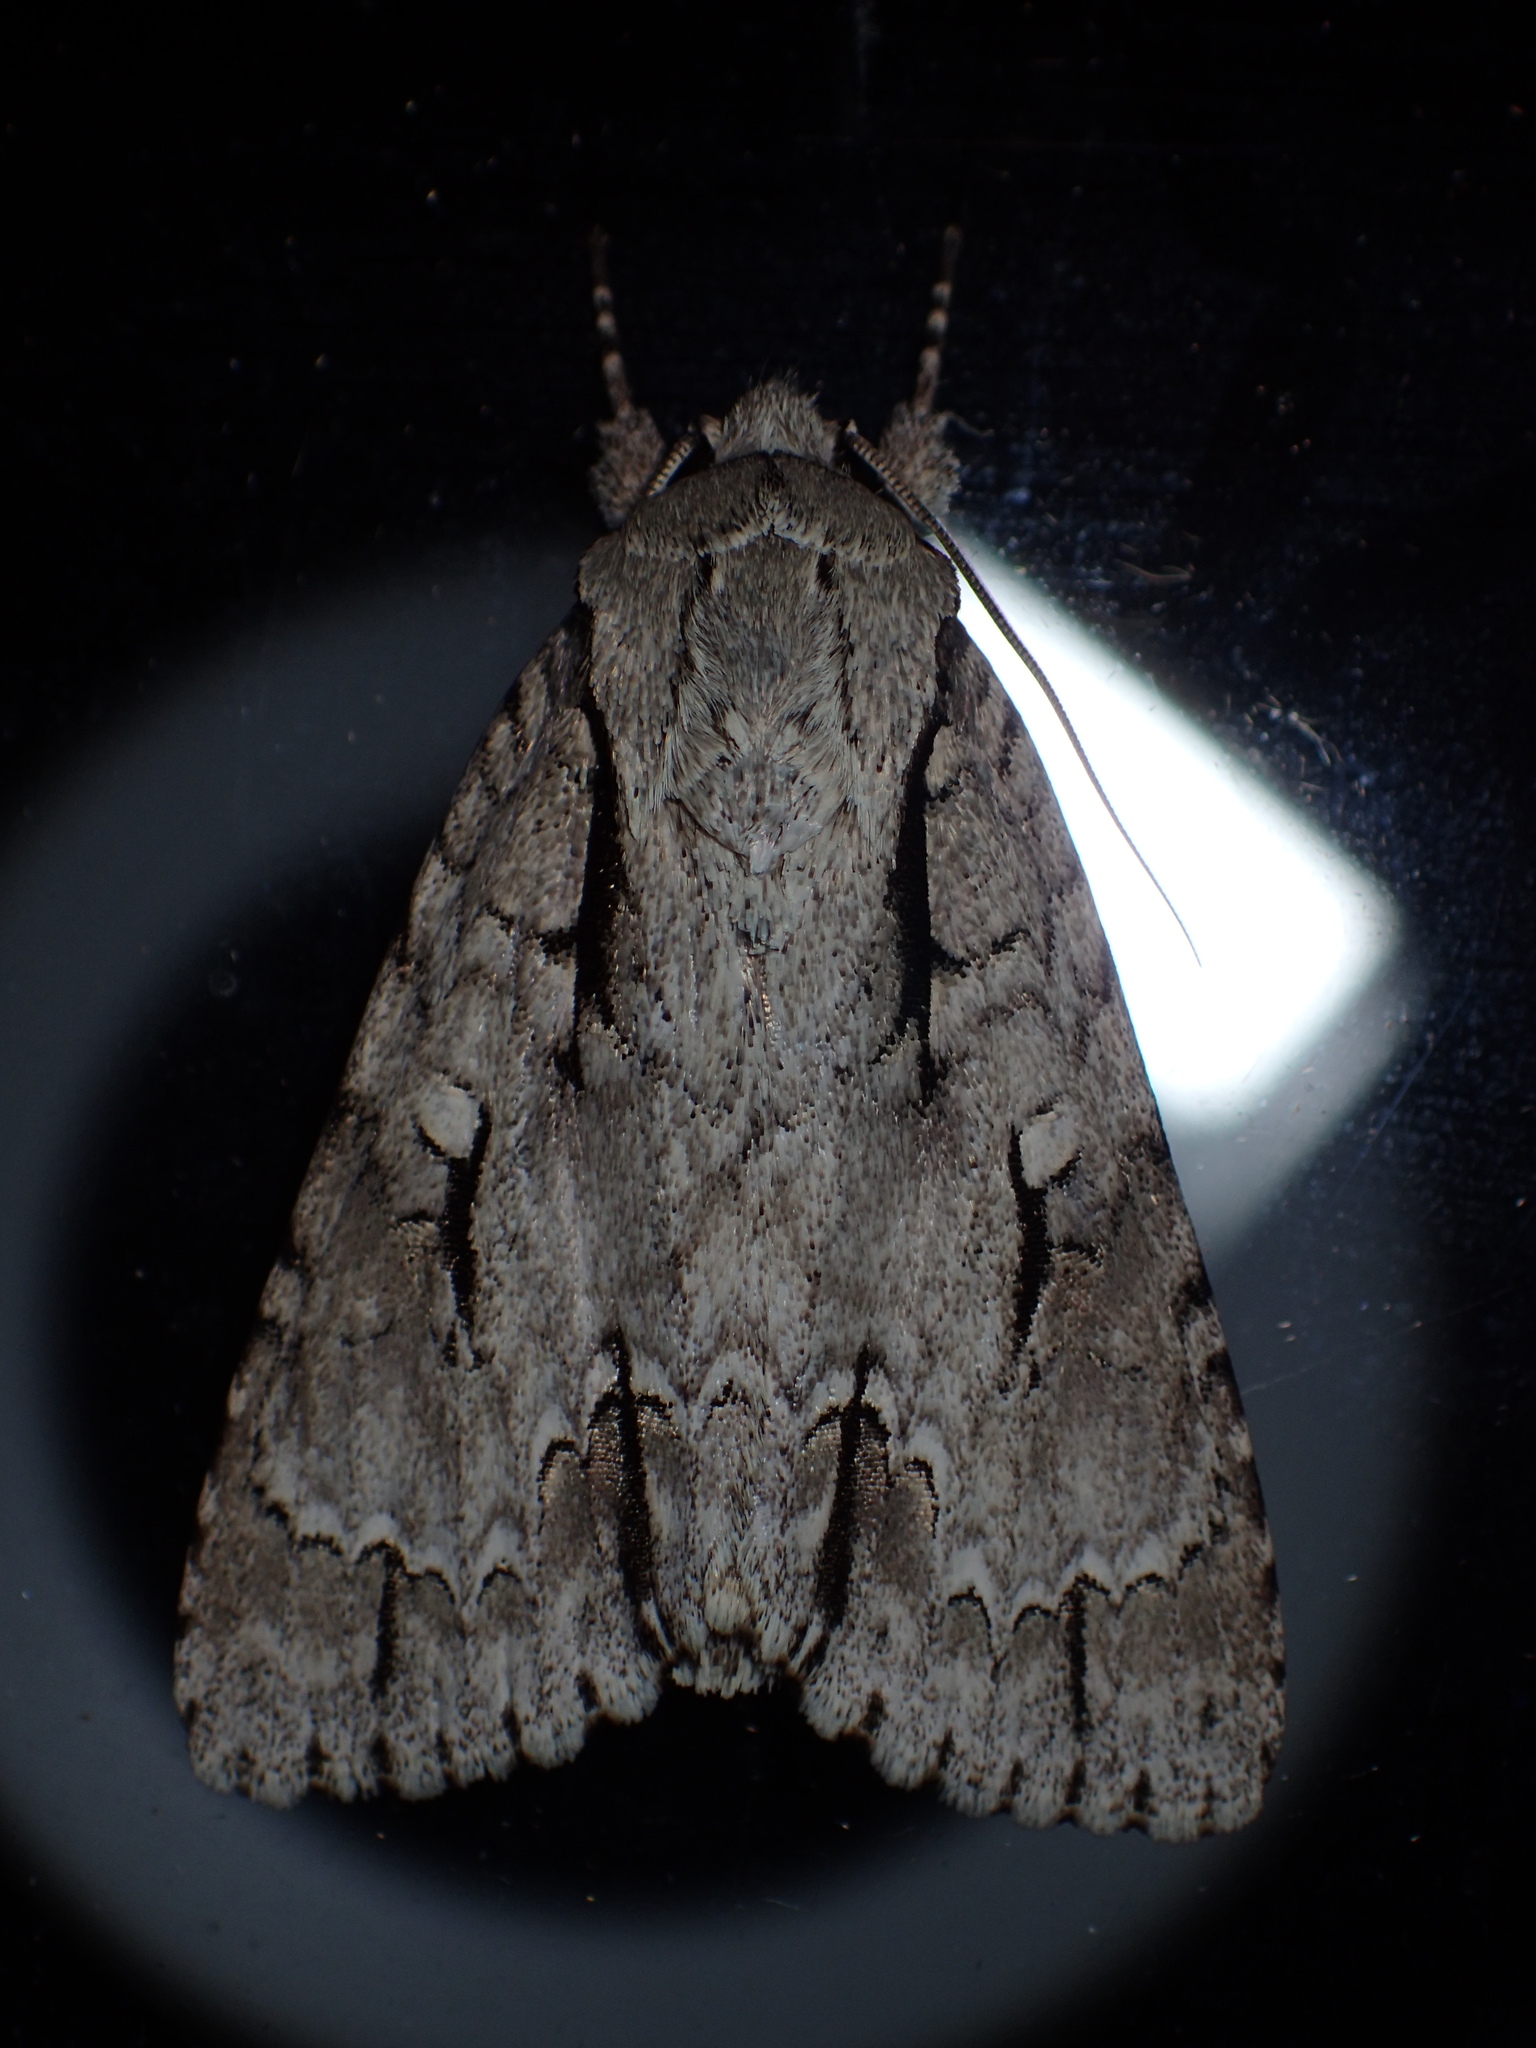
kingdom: Animalia
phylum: Arthropoda
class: Insecta
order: Lepidoptera
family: Noctuidae
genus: Acronicta
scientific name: Acronicta hasta
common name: Cherry dagger
